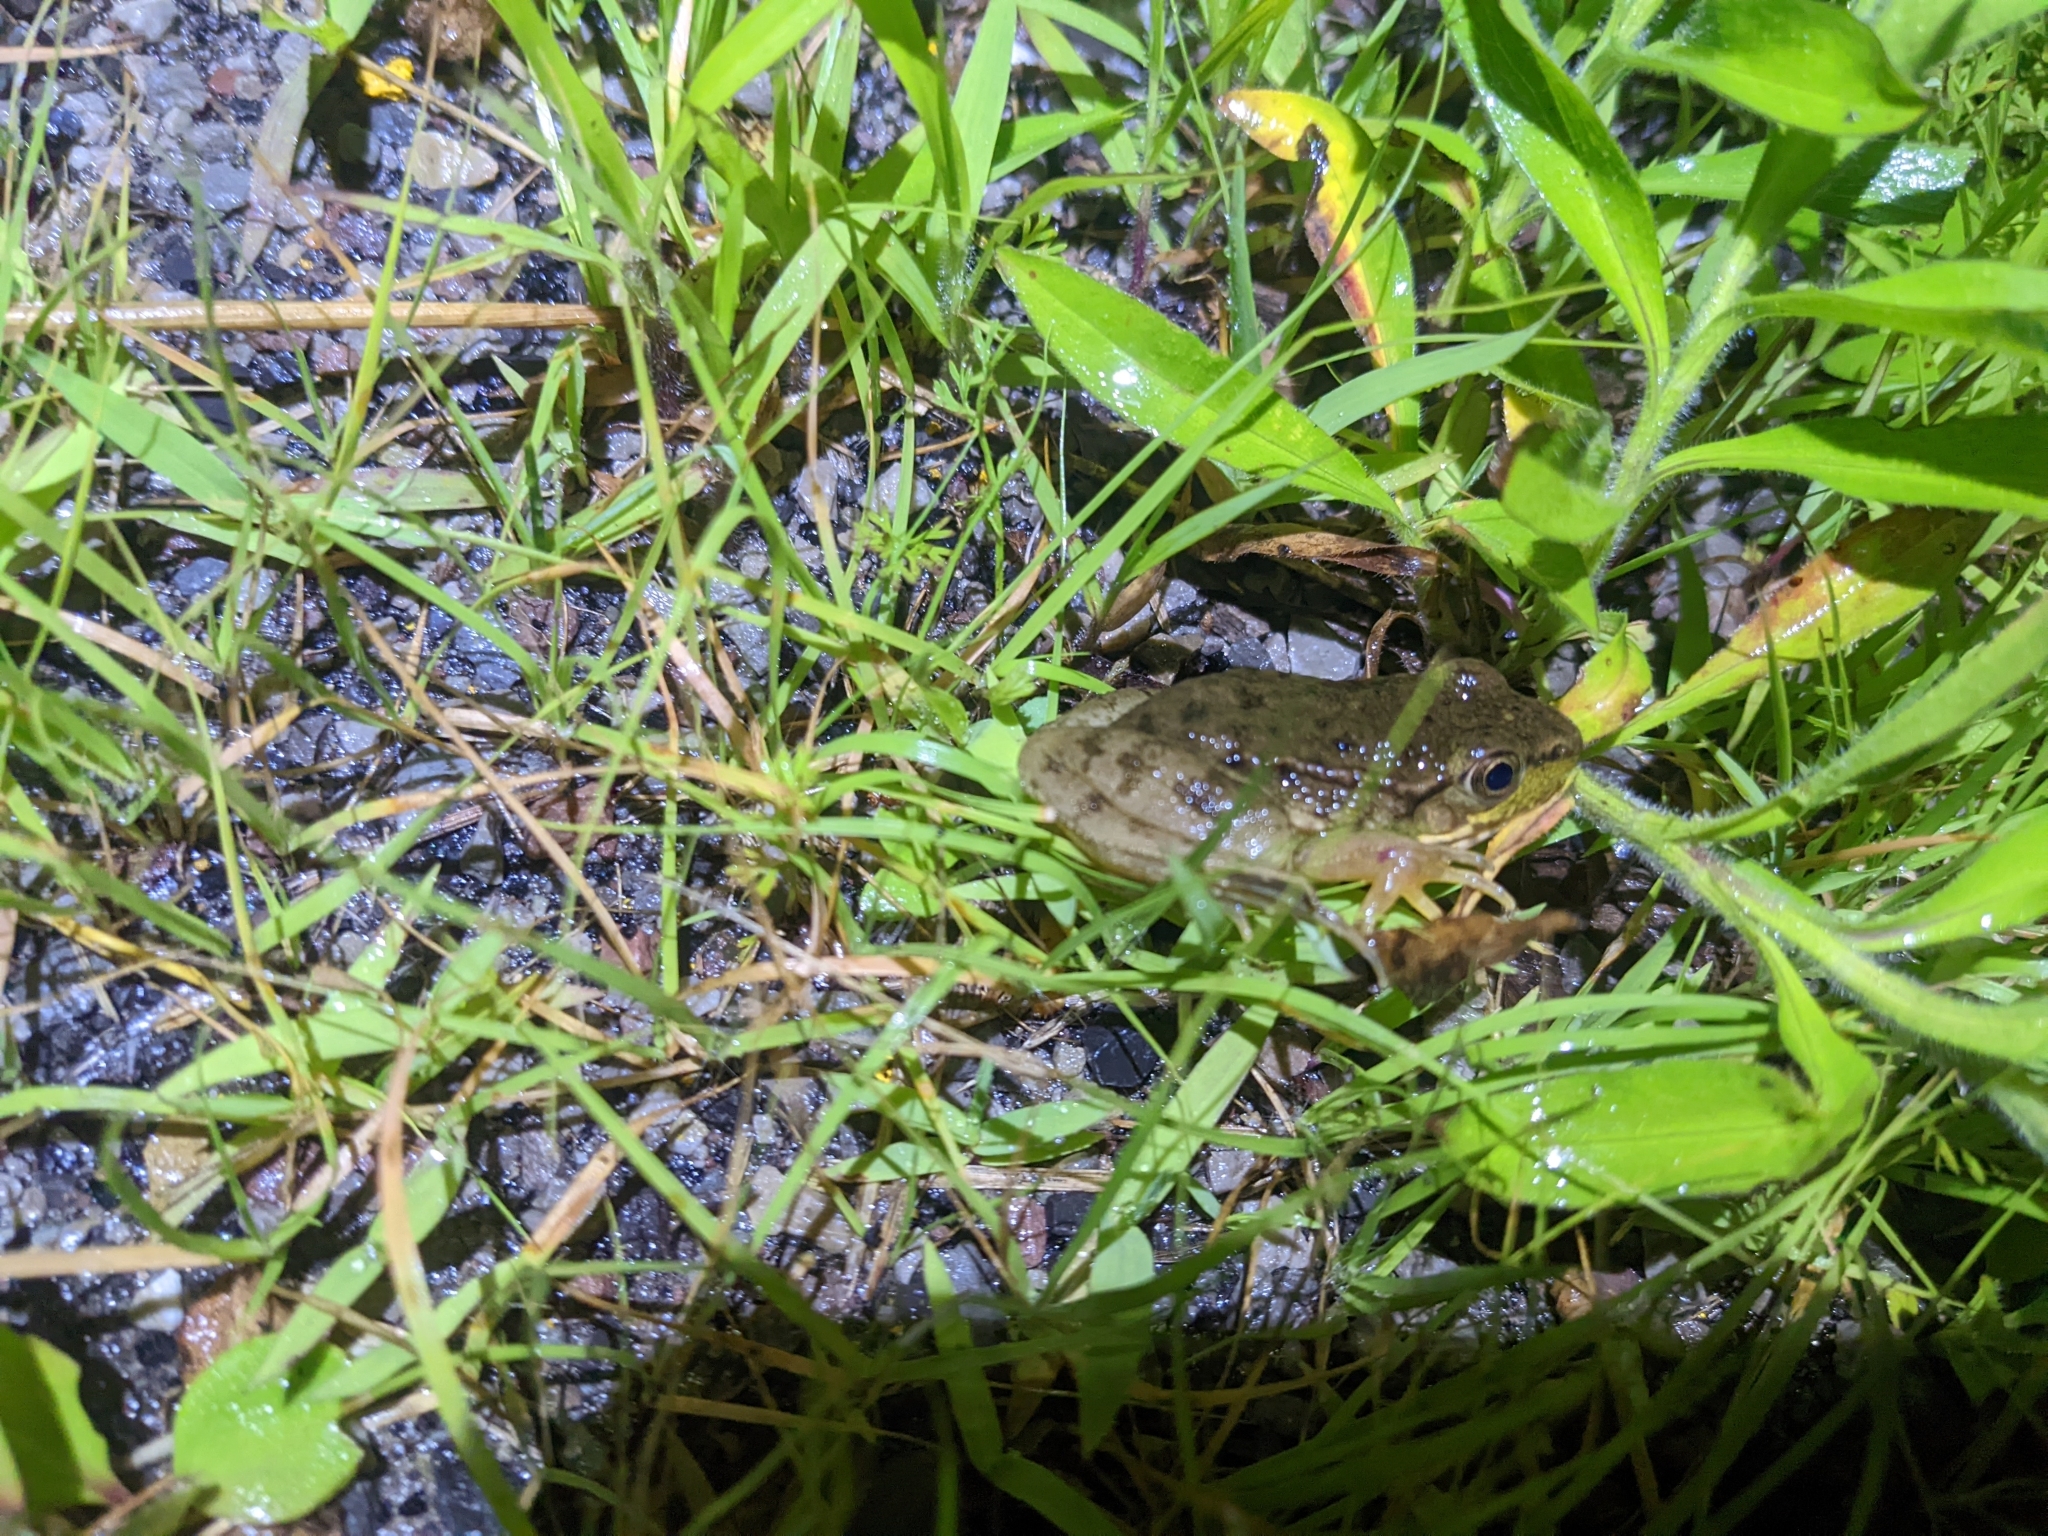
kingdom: Animalia
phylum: Chordata
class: Amphibia
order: Anura
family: Ranidae
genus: Lithobates
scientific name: Lithobates clamitans
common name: Green frog
